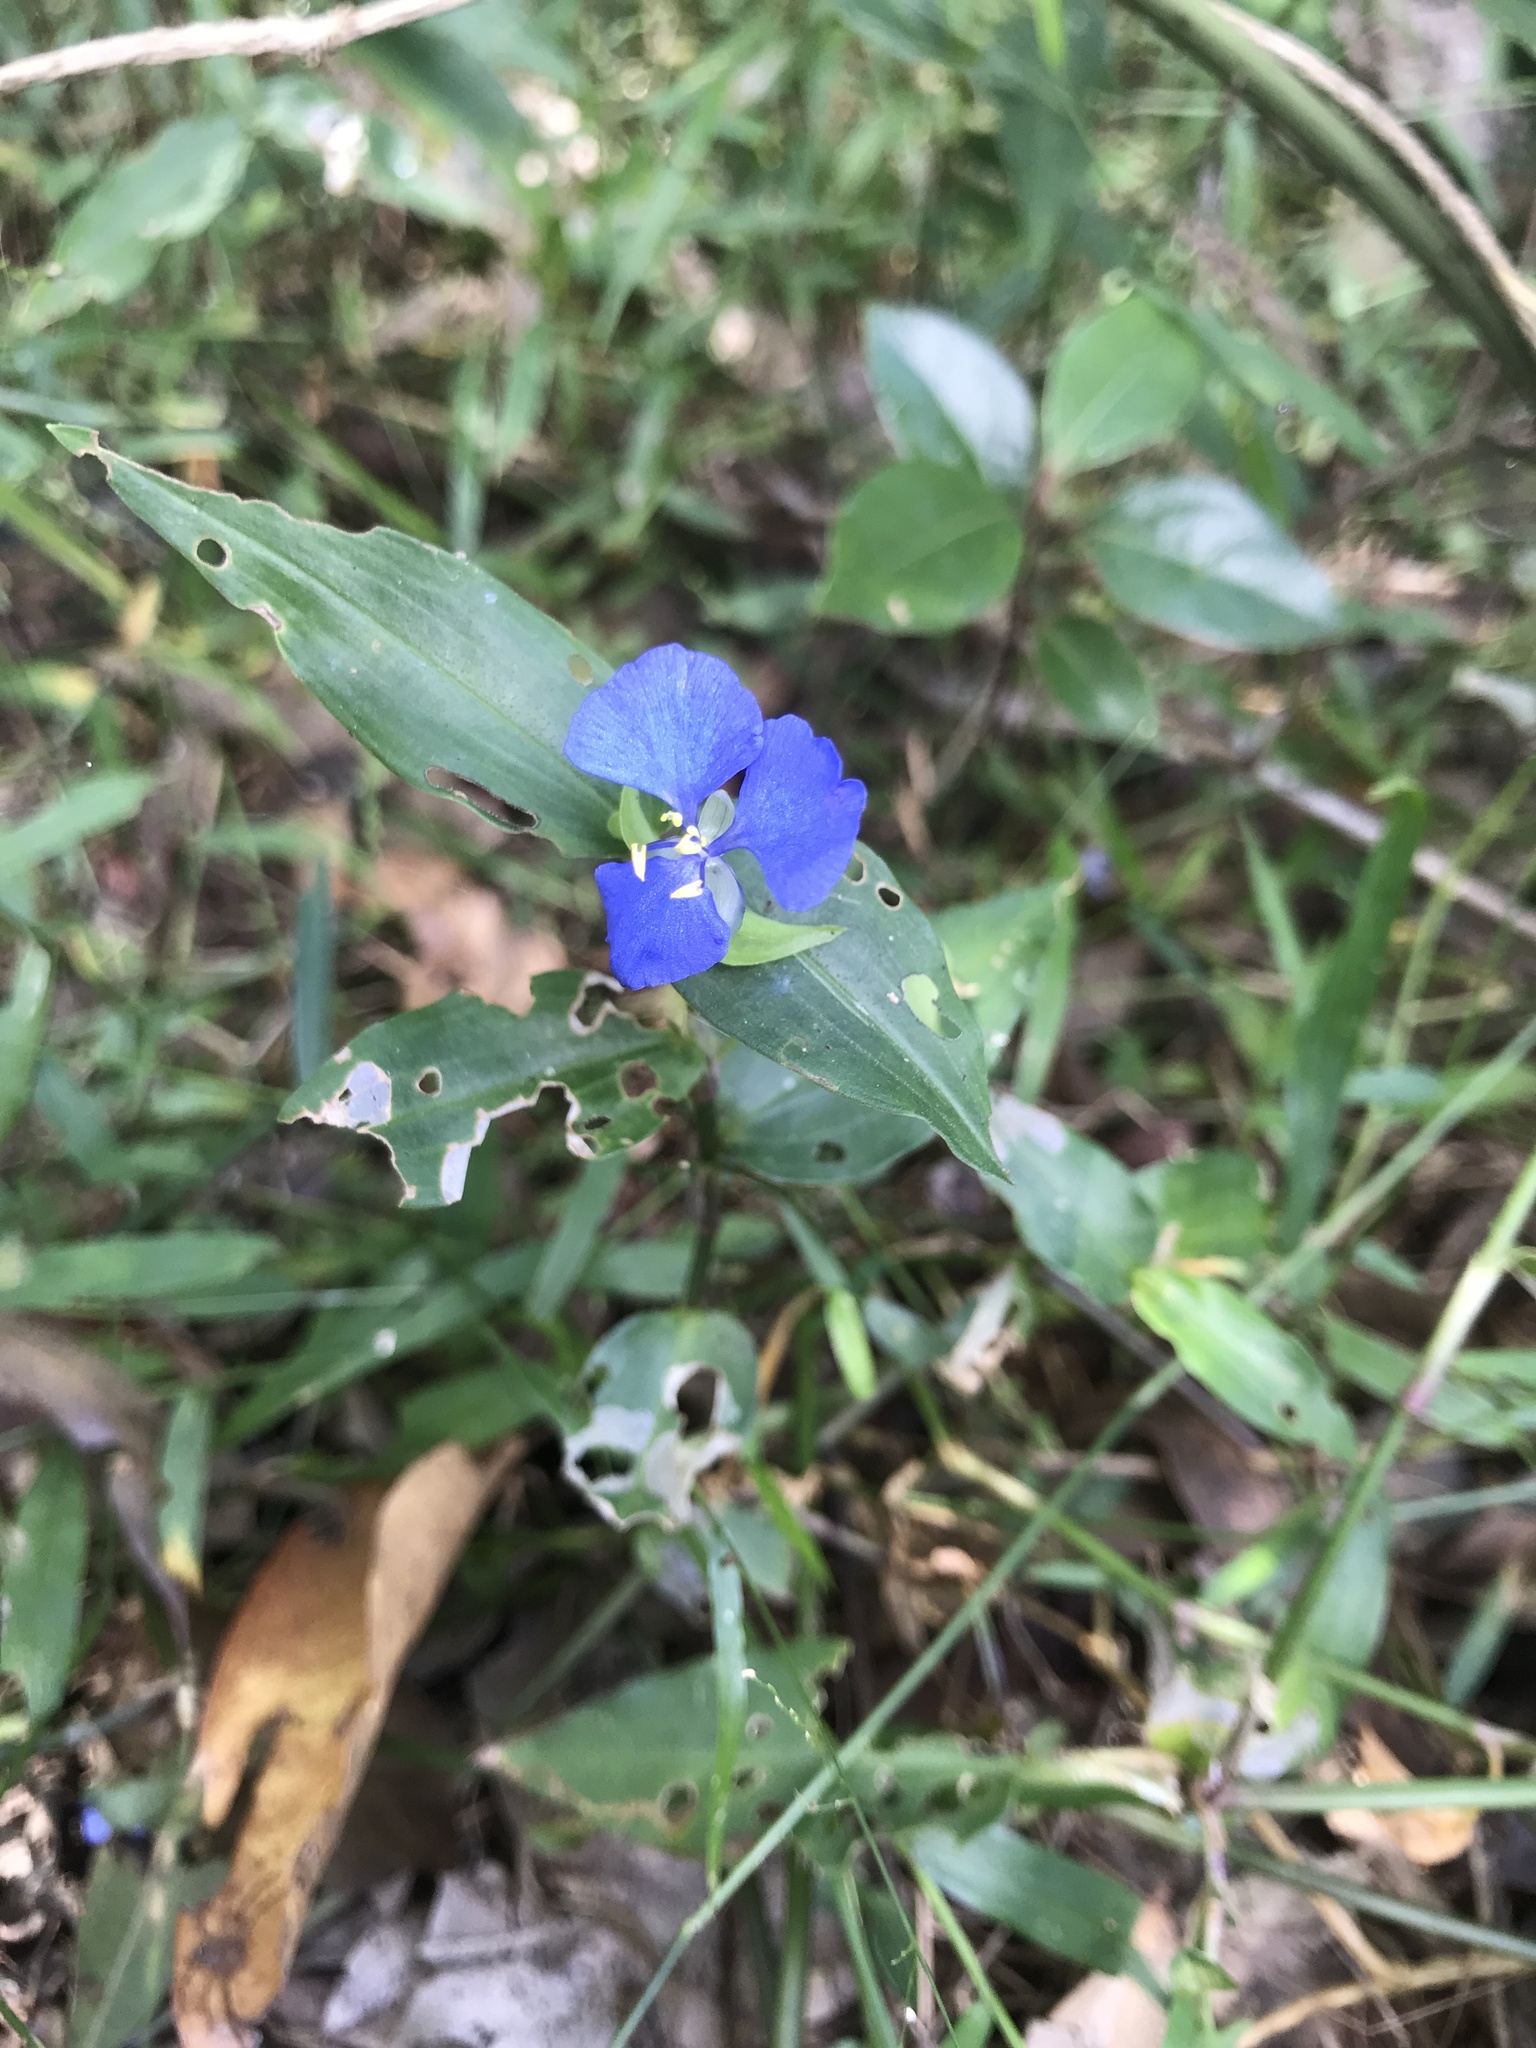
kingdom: Plantae
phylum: Tracheophyta
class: Liliopsida
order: Commelinales
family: Commelinaceae
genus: Commelina
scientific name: Commelina diffusa
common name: Climbing dayflower
